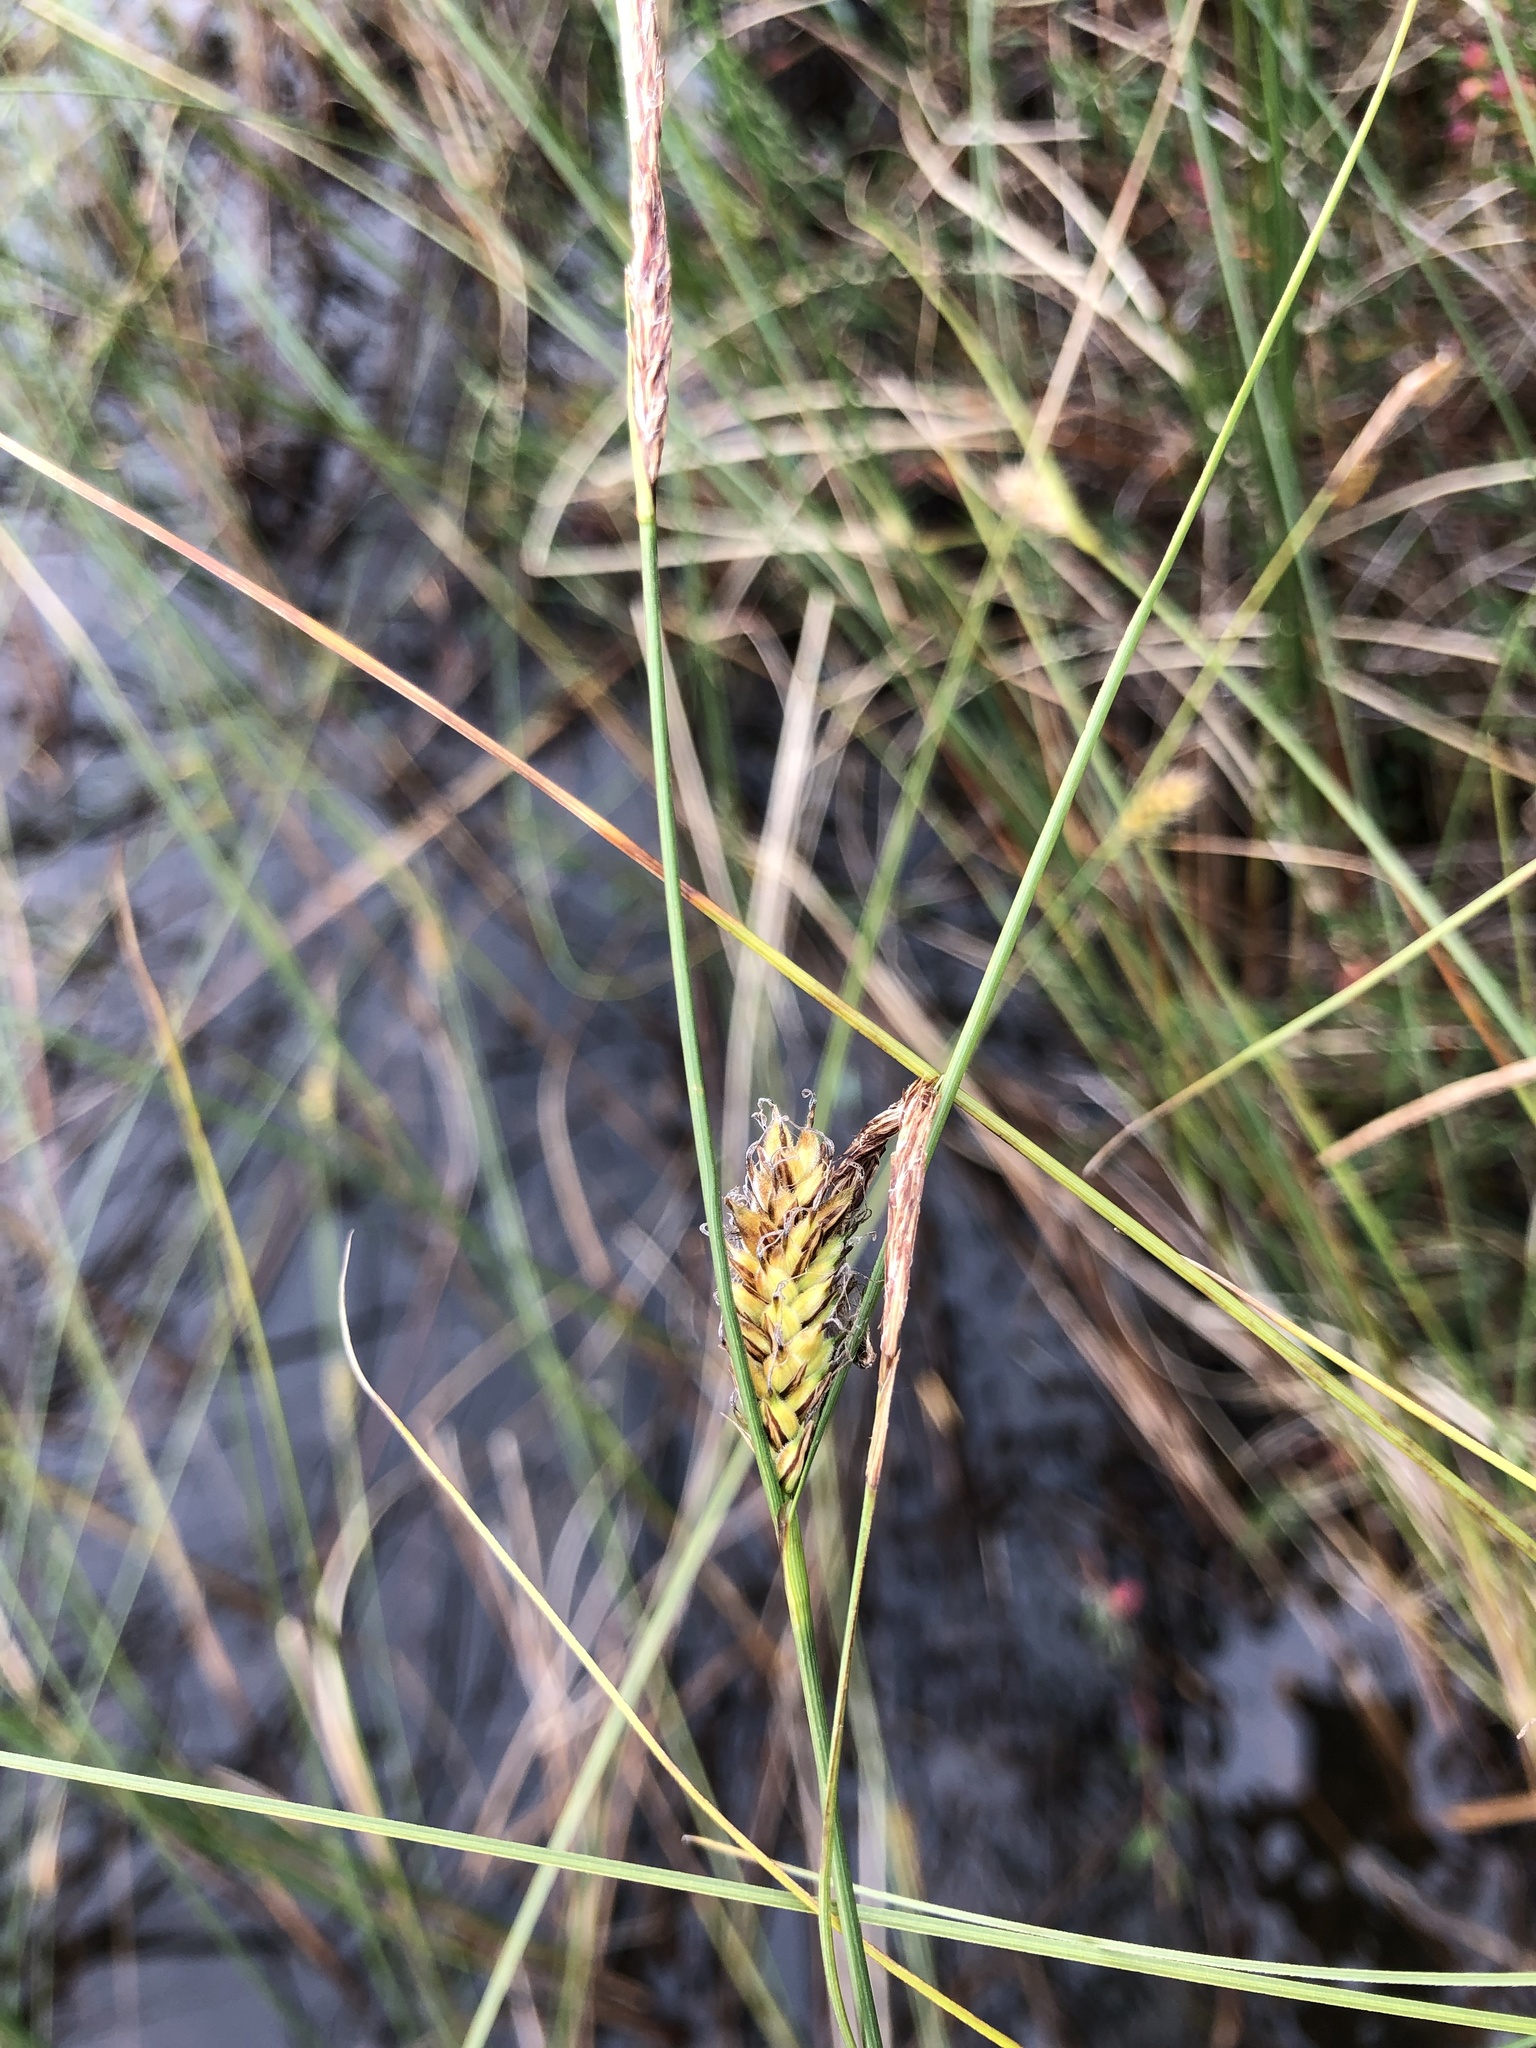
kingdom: Plantae
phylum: Tracheophyta
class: Liliopsida
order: Poales
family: Cyperaceae
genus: Carex
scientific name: Carex lasiocarpa
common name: Slender sedge
